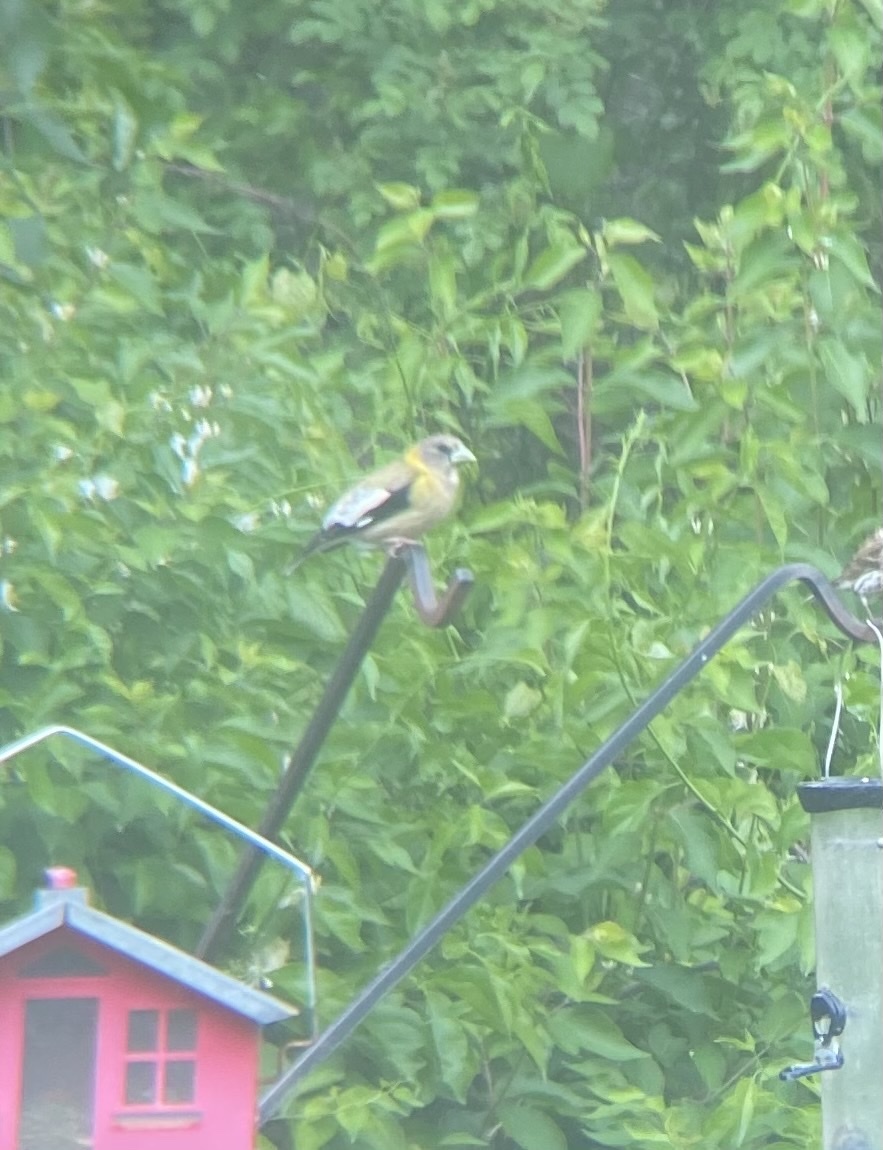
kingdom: Animalia
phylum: Chordata
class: Aves
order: Passeriformes
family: Fringillidae
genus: Hesperiphona
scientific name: Hesperiphona vespertina
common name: Evening grosbeak
